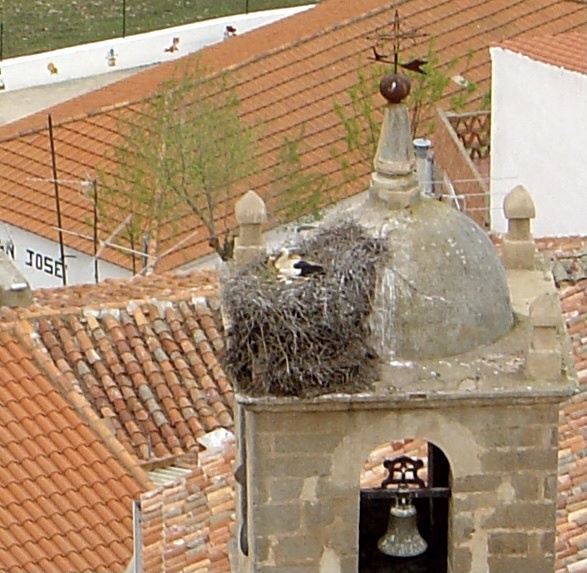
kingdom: Animalia
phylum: Chordata
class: Aves
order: Ciconiiformes
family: Ciconiidae
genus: Ciconia
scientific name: Ciconia ciconia
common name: White stork
